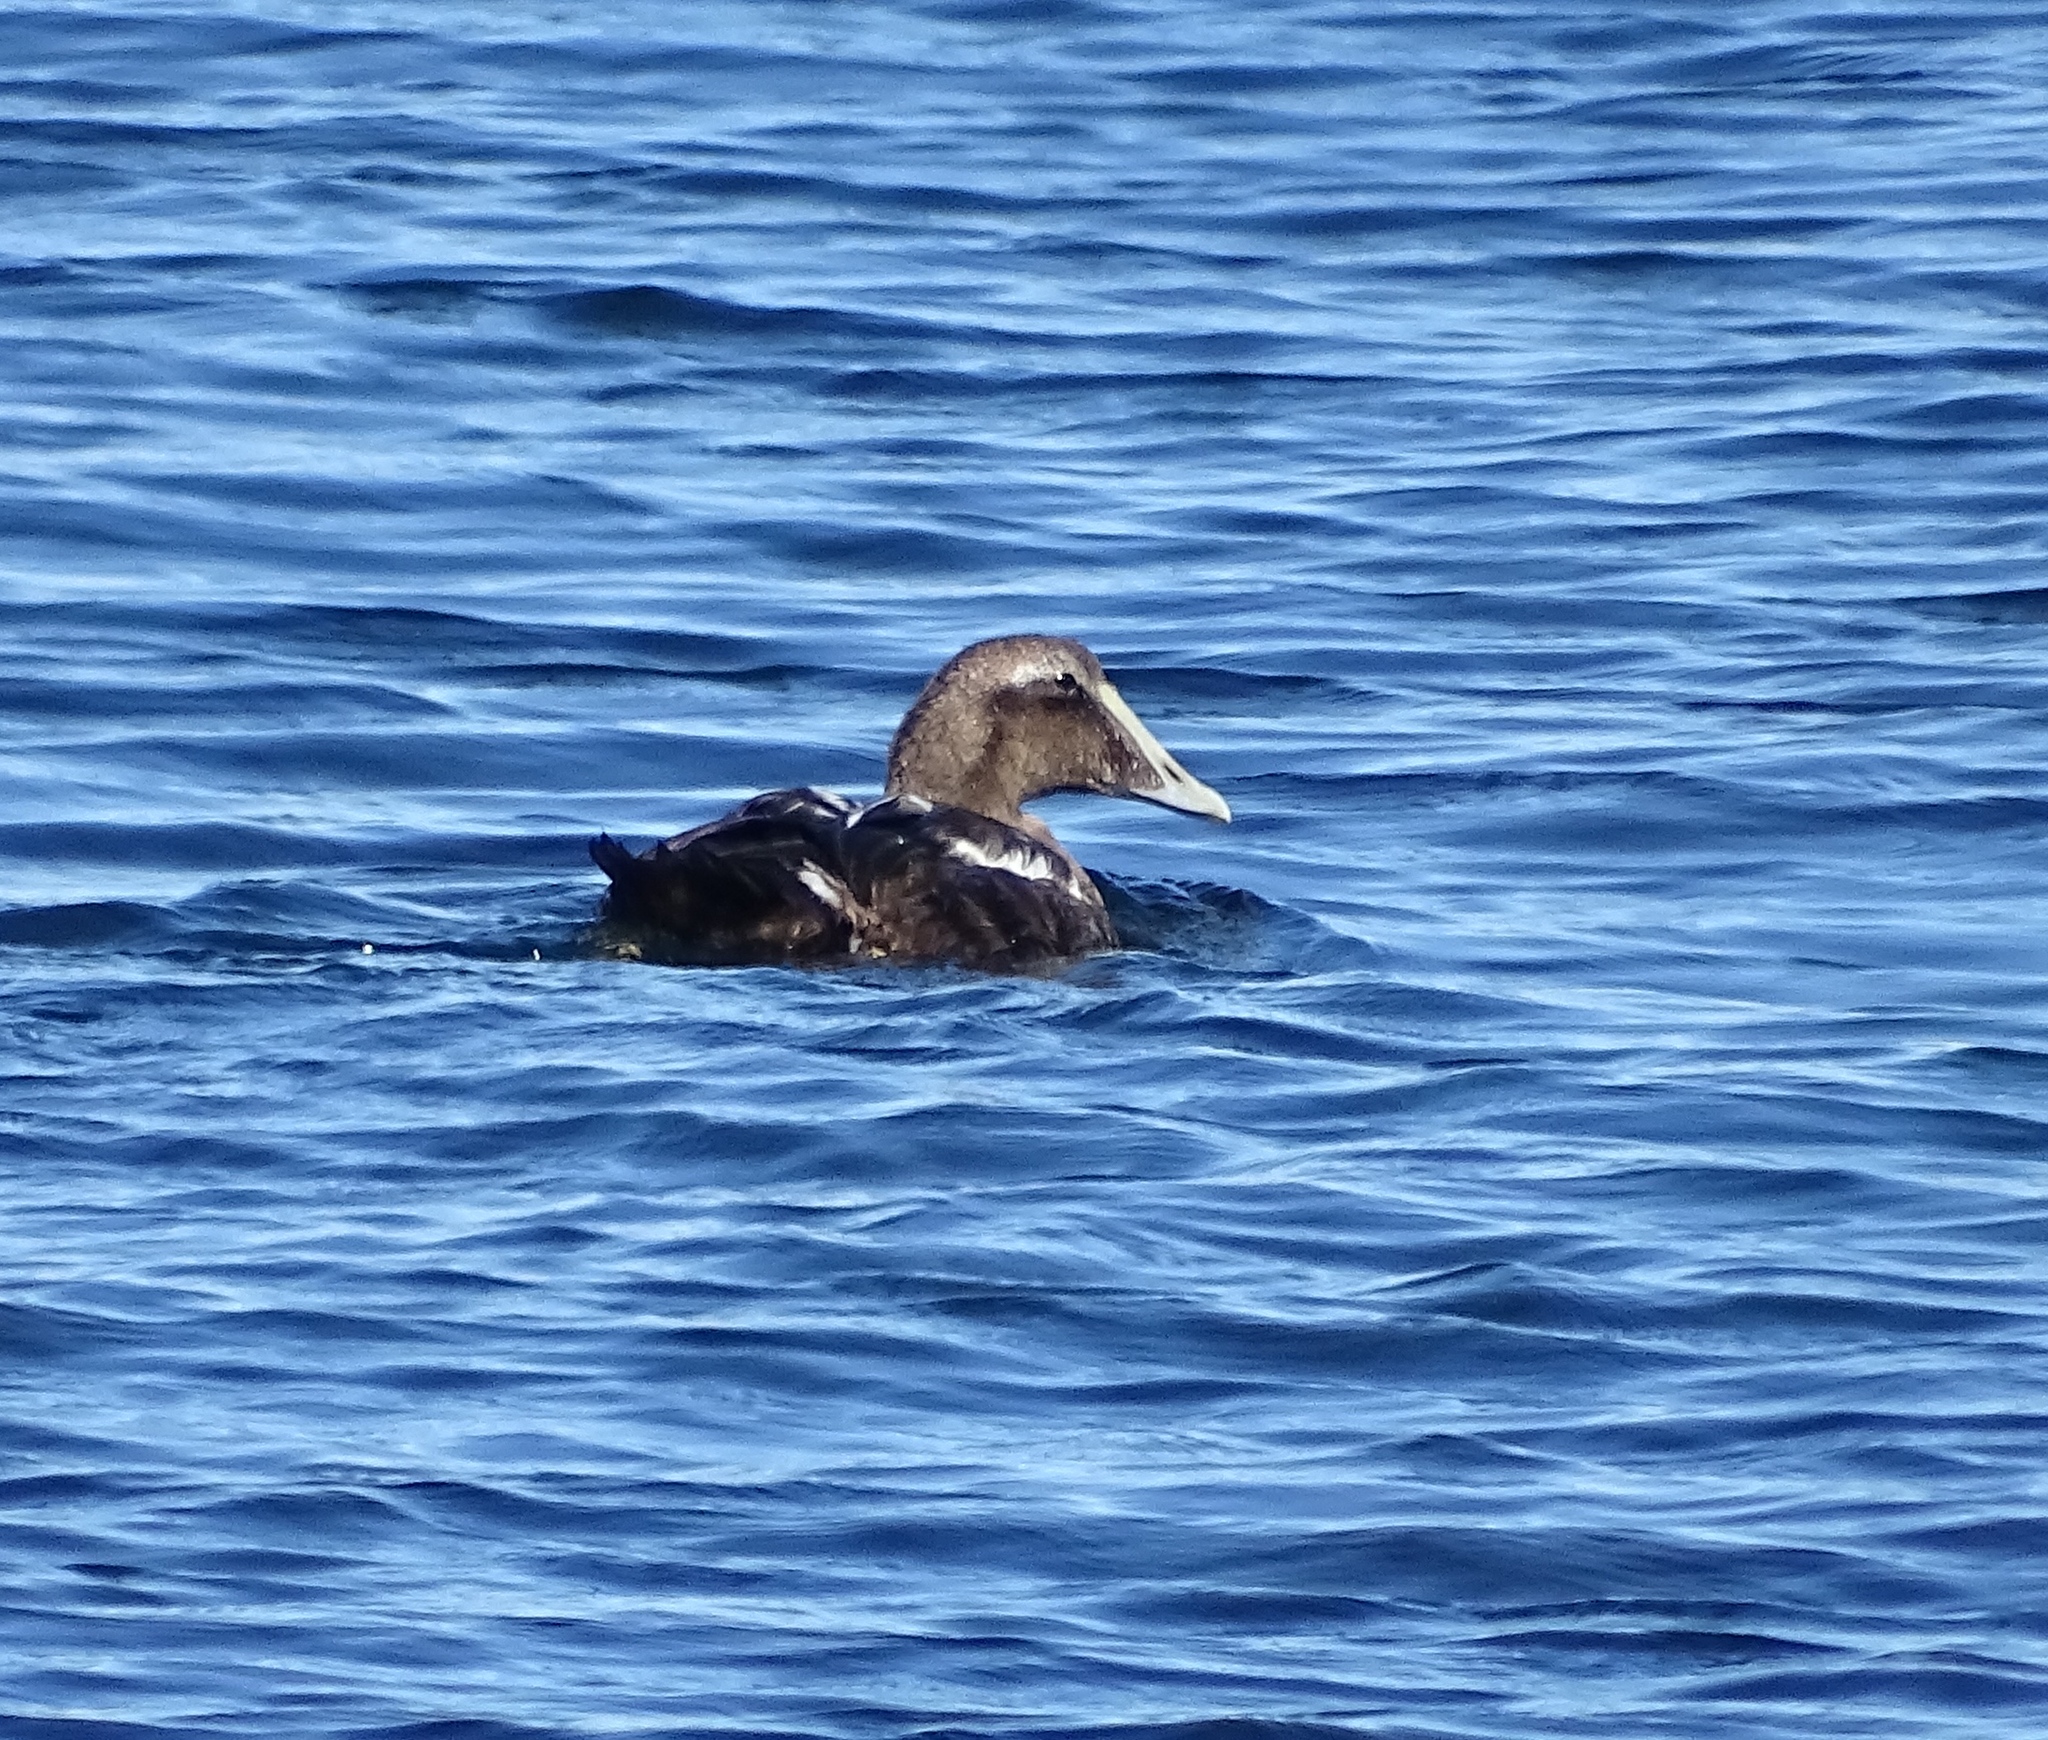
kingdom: Animalia
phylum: Chordata
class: Aves
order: Anseriformes
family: Anatidae
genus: Somateria
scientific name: Somateria mollissima
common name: Common eider
